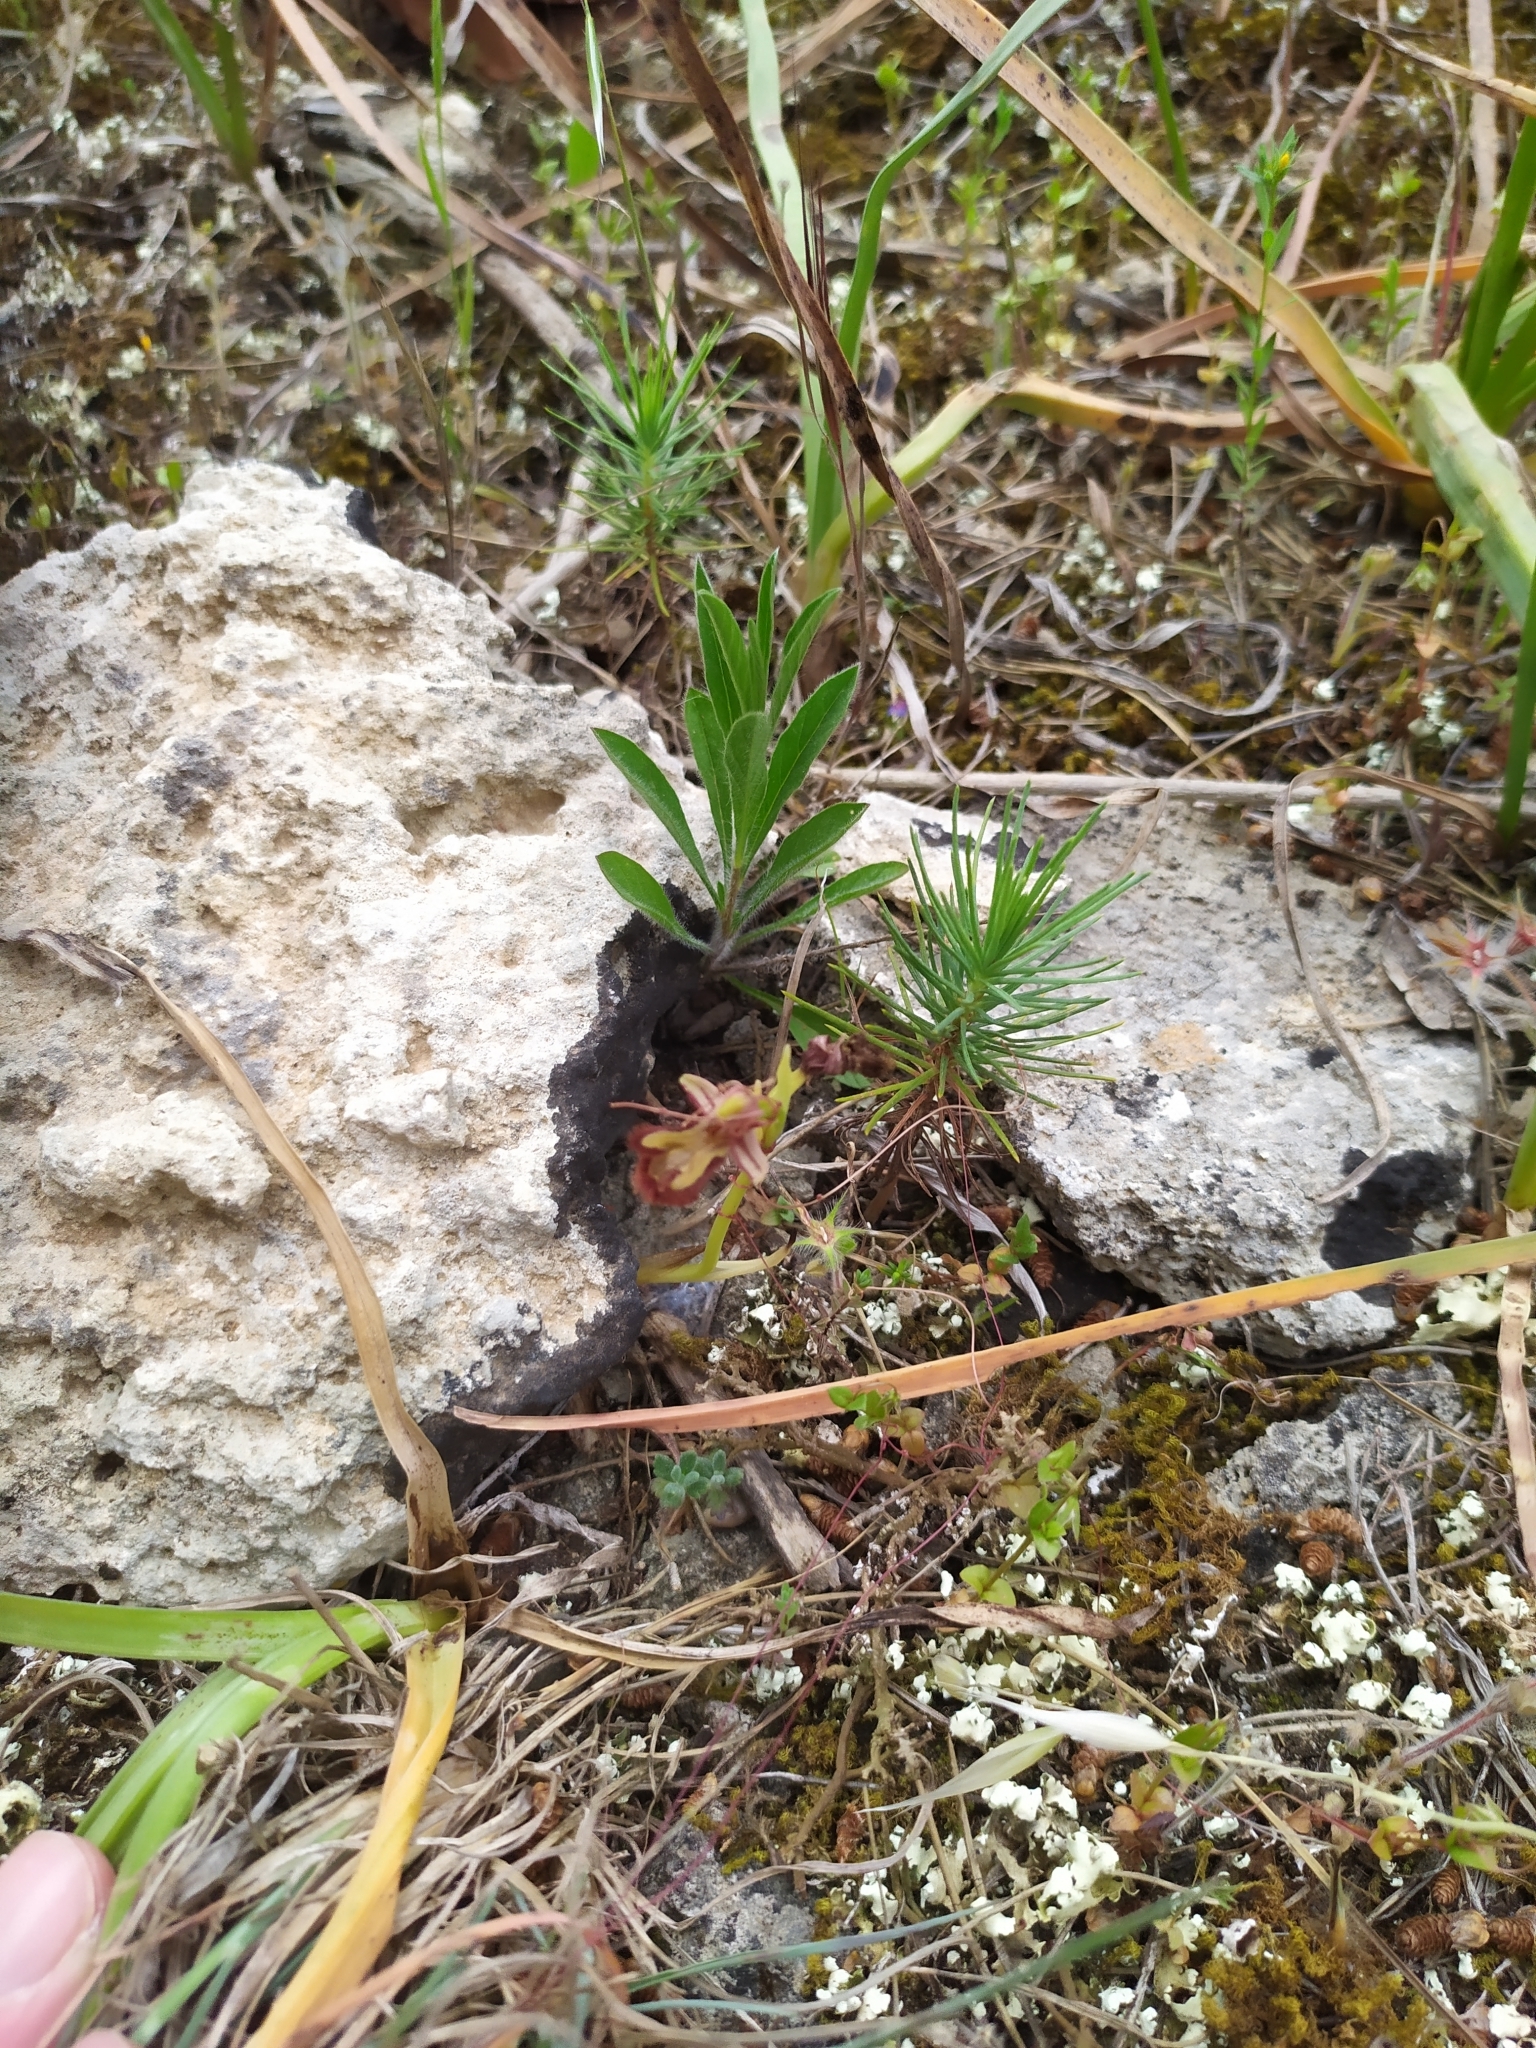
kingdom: Plantae
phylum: Tracheophyta
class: Liliopsida
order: Asparagales
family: Orchidaceae
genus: Ophrys
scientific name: Ophrys speculum
